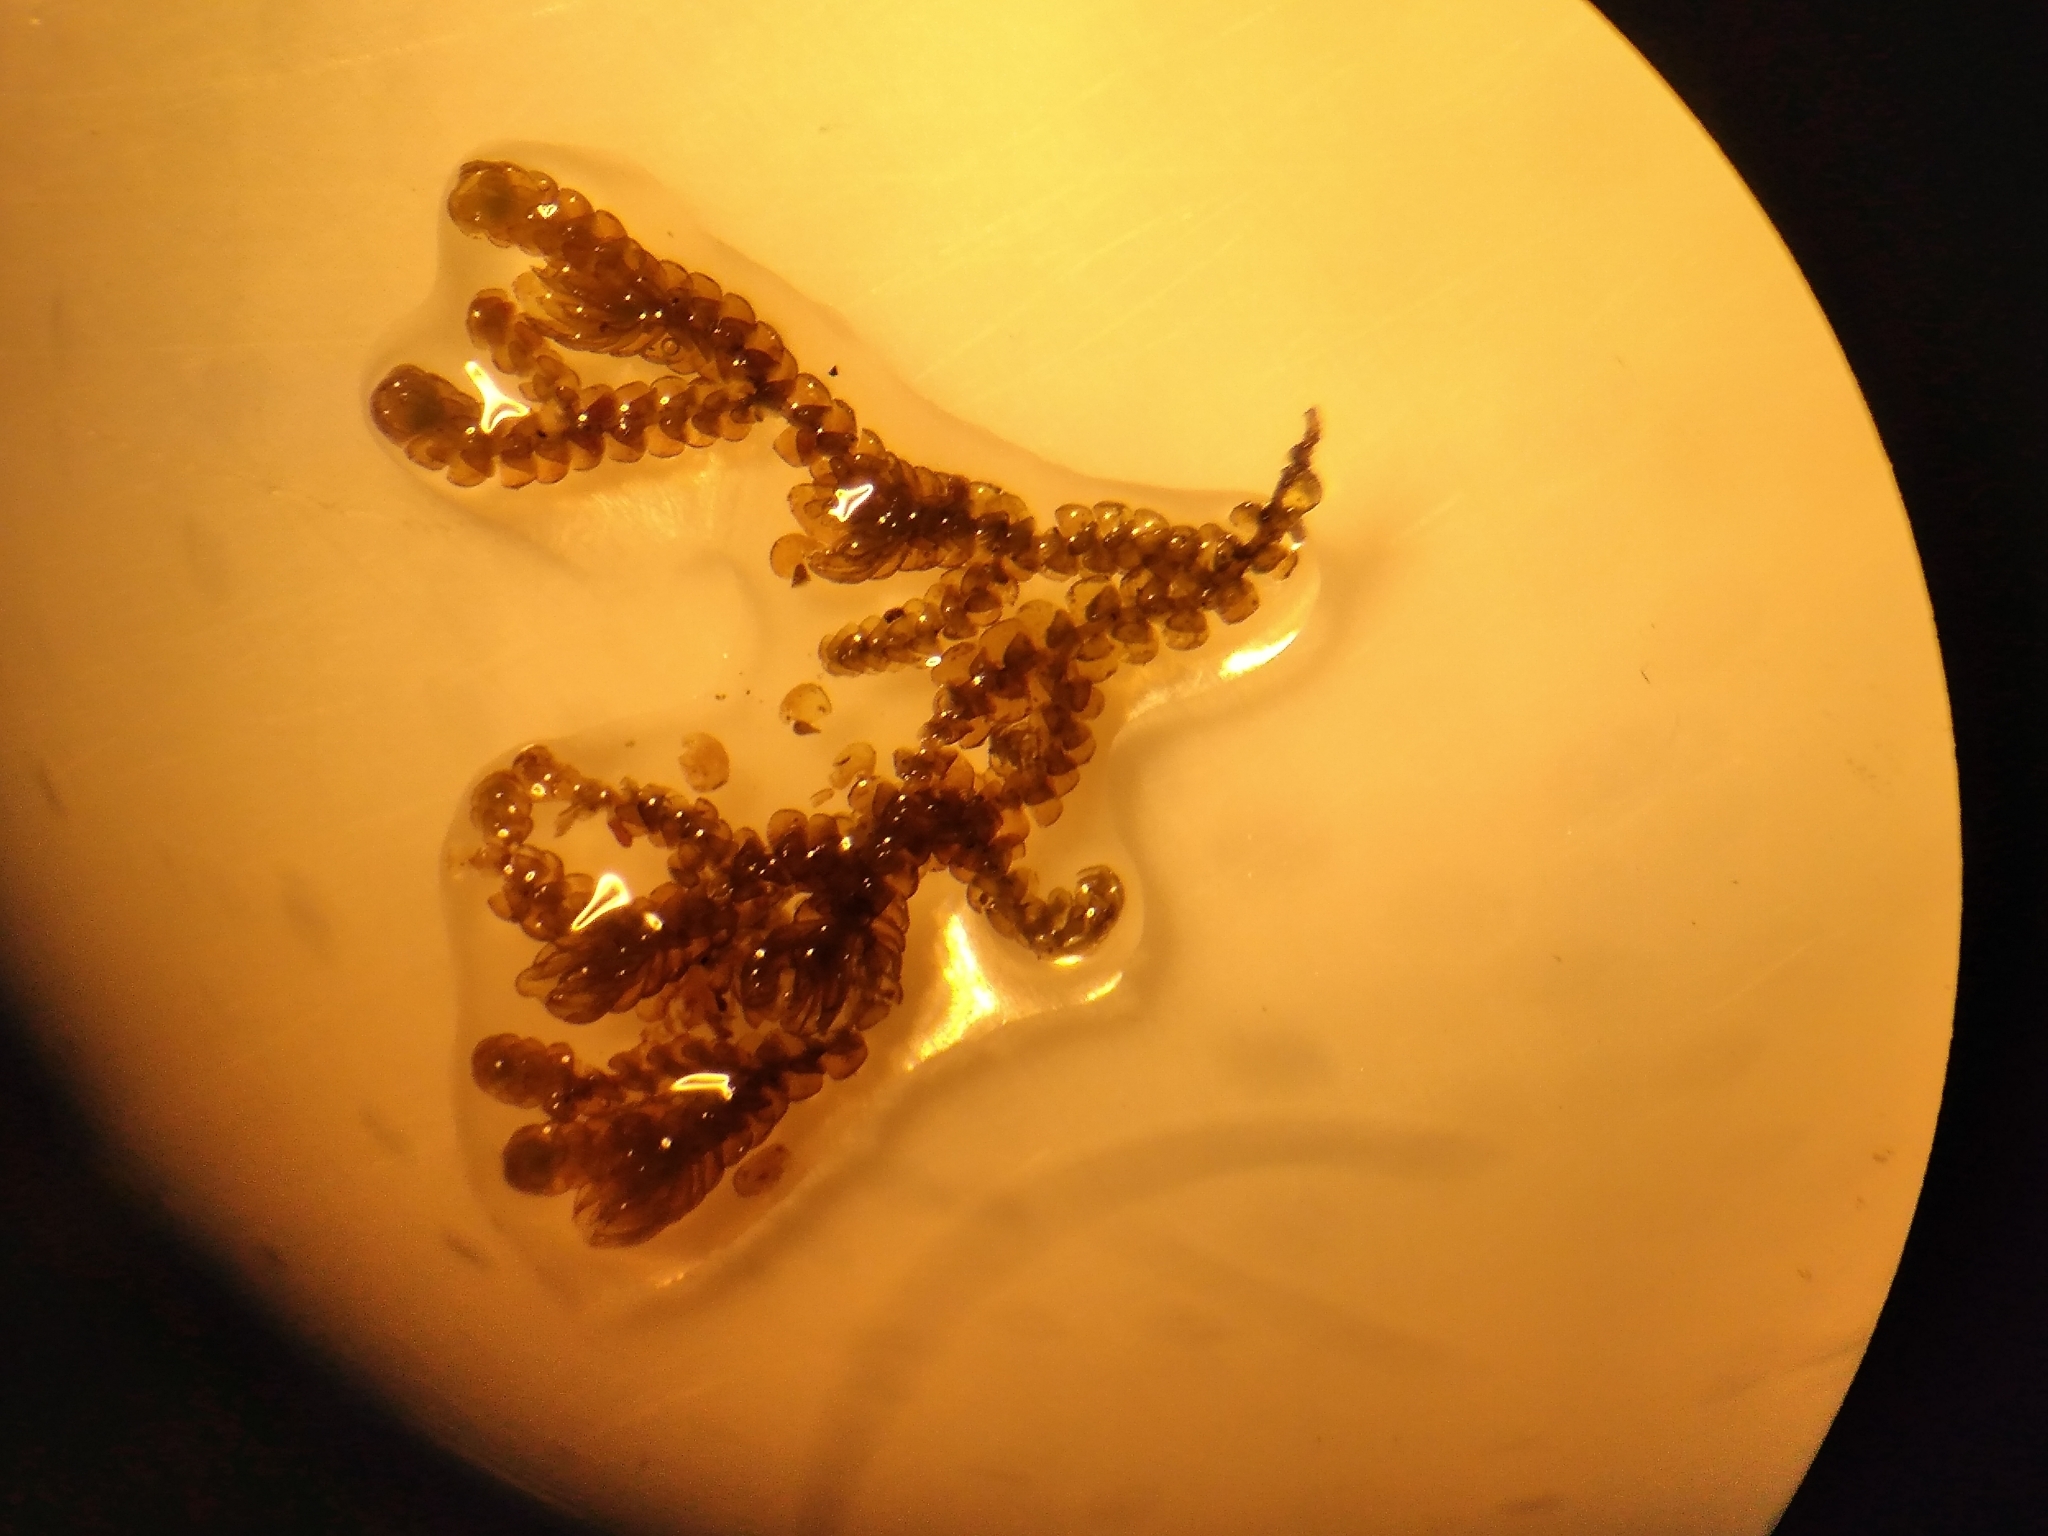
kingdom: Plantae
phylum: Marchantiophyta
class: Jungermanniopsida
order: Porellales
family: Frullaniaceae
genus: Frullania
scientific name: Frullania incumbens
